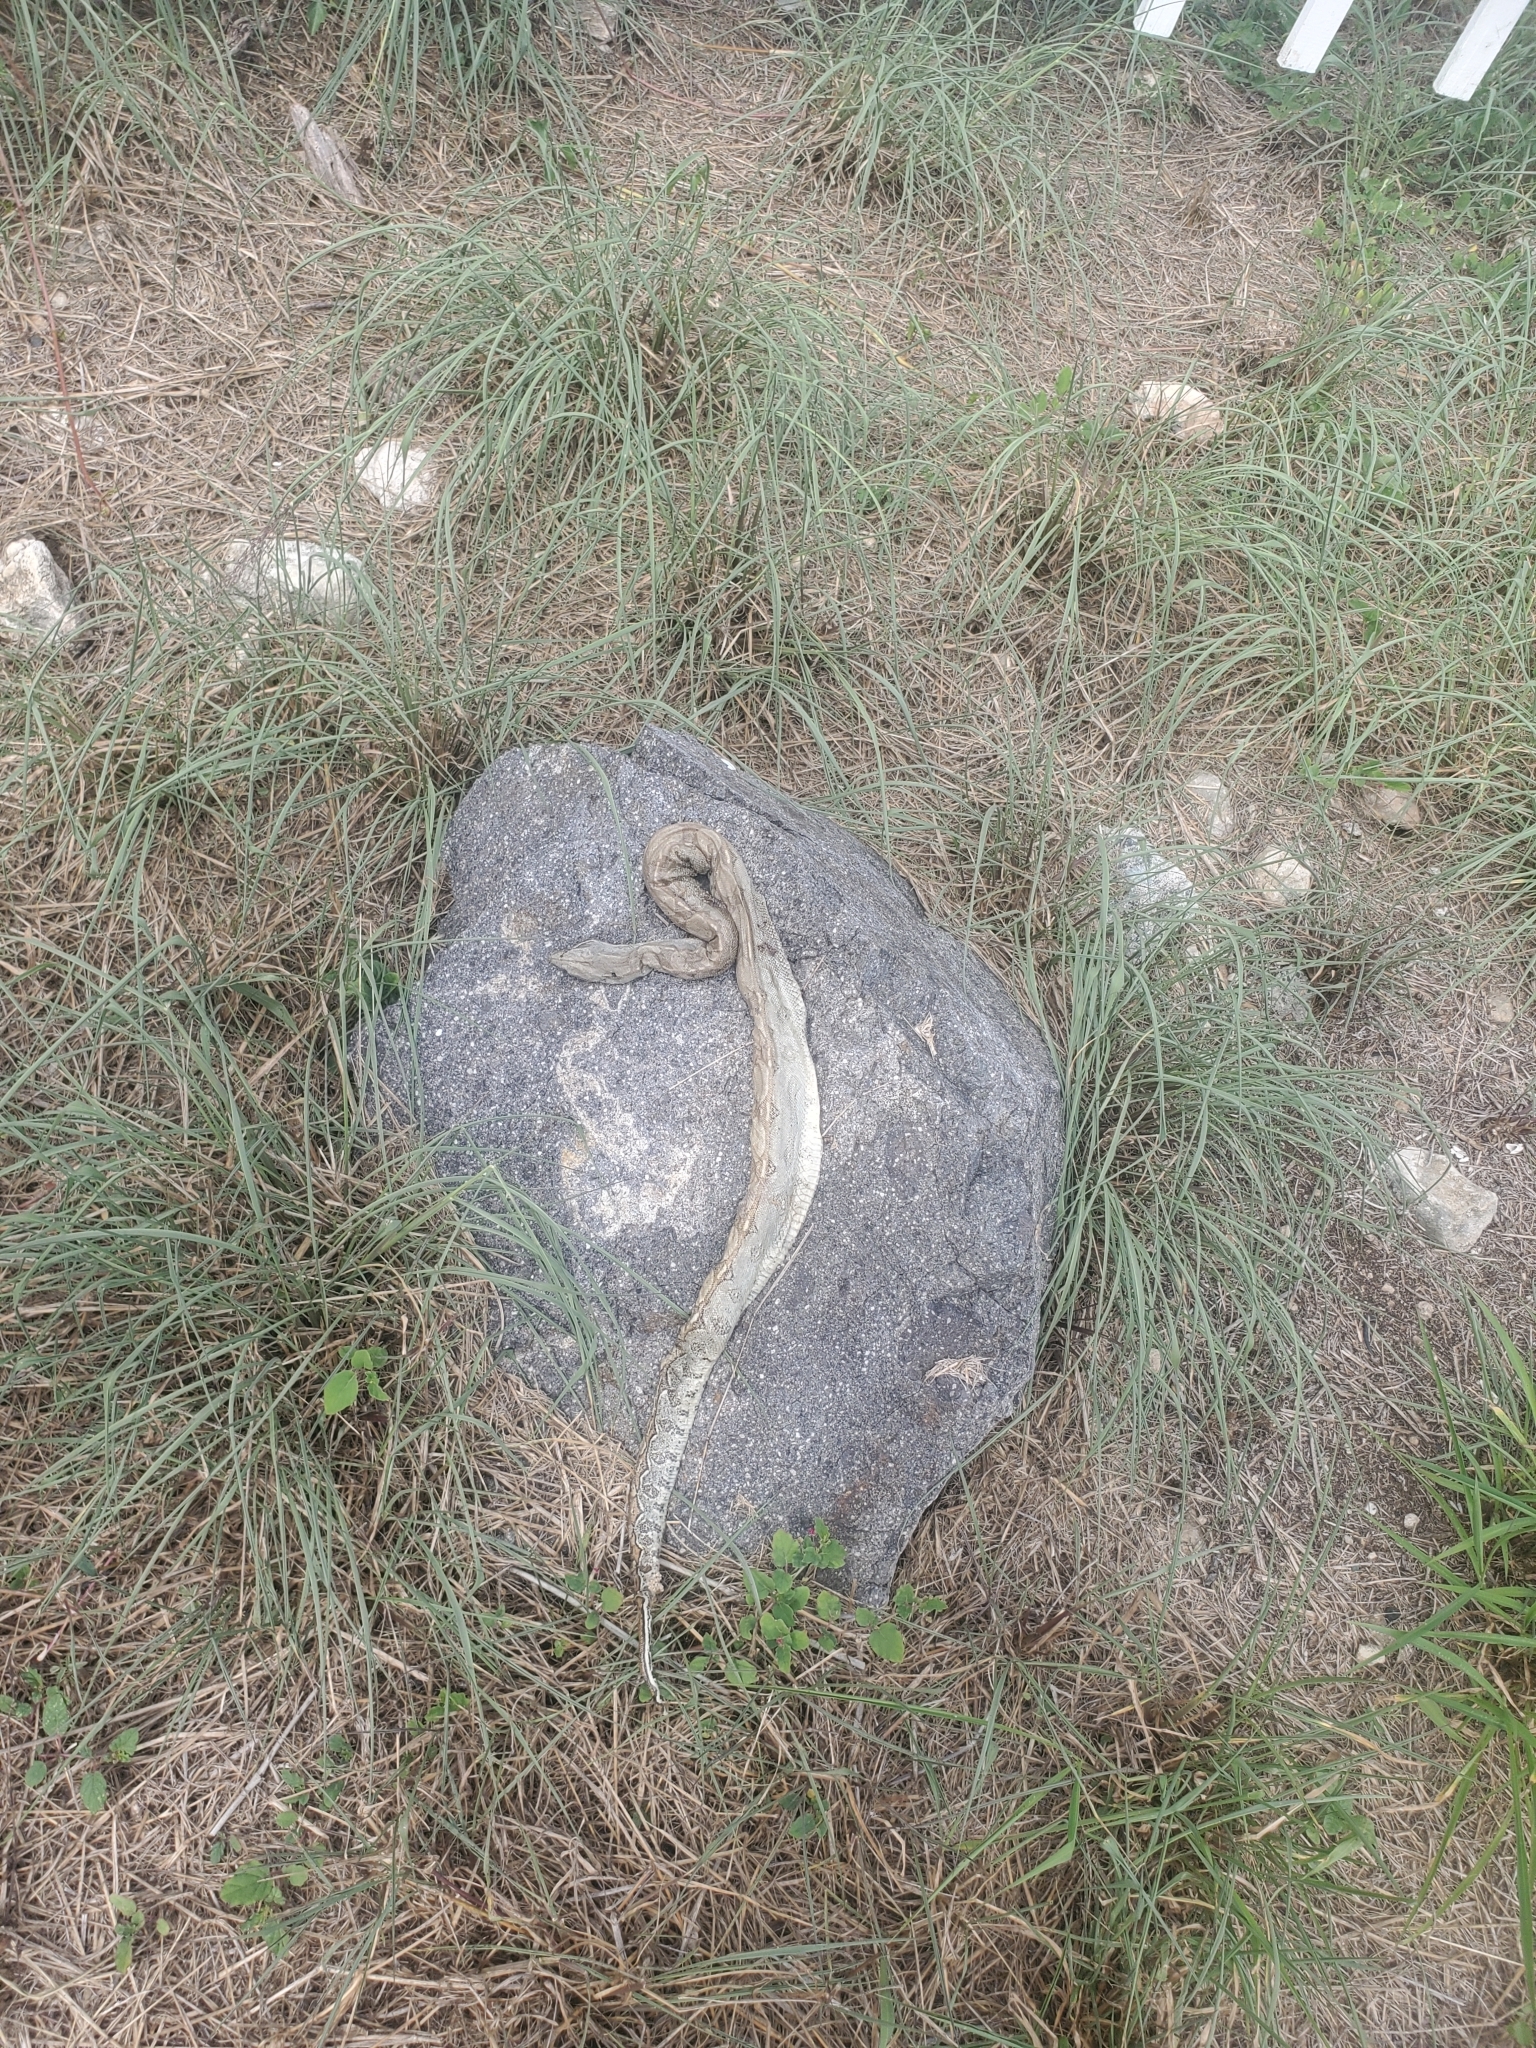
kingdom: Animalia
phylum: Chordata
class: Squamata
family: Boidae
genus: Boa
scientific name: Boa constrictor
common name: Boa constrictor
